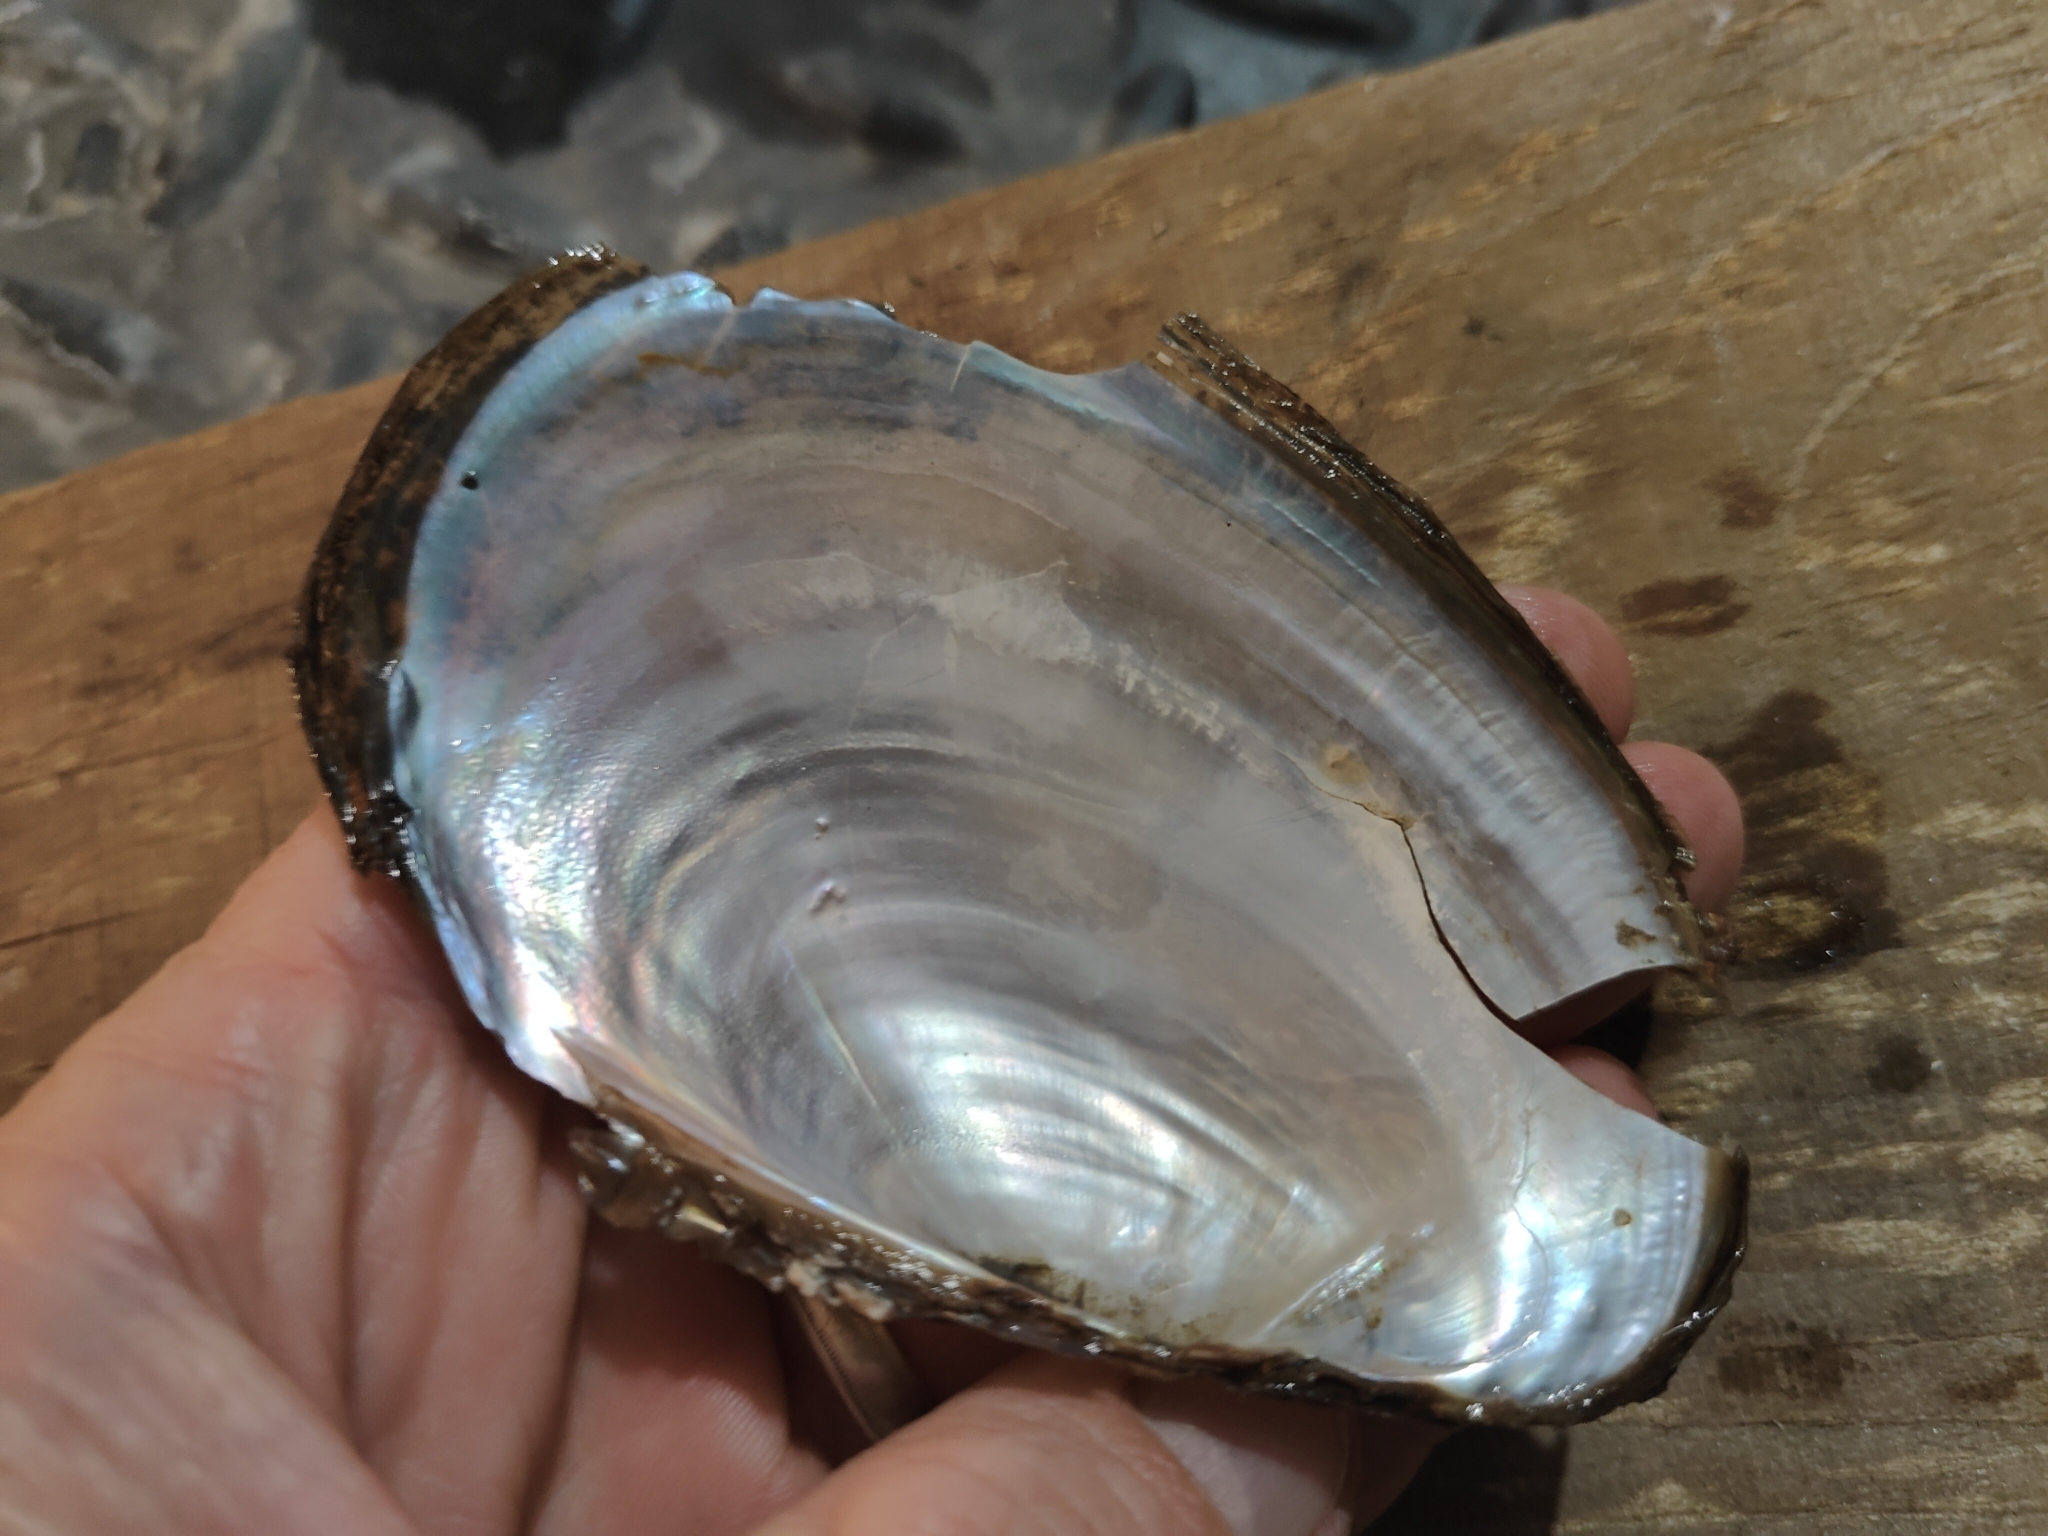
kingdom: Animalia
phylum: Mollusca
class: Bivalvia
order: Unionida
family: Unionidae
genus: Potamilus
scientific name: Potamilus fragilis
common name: Fragile papershell
